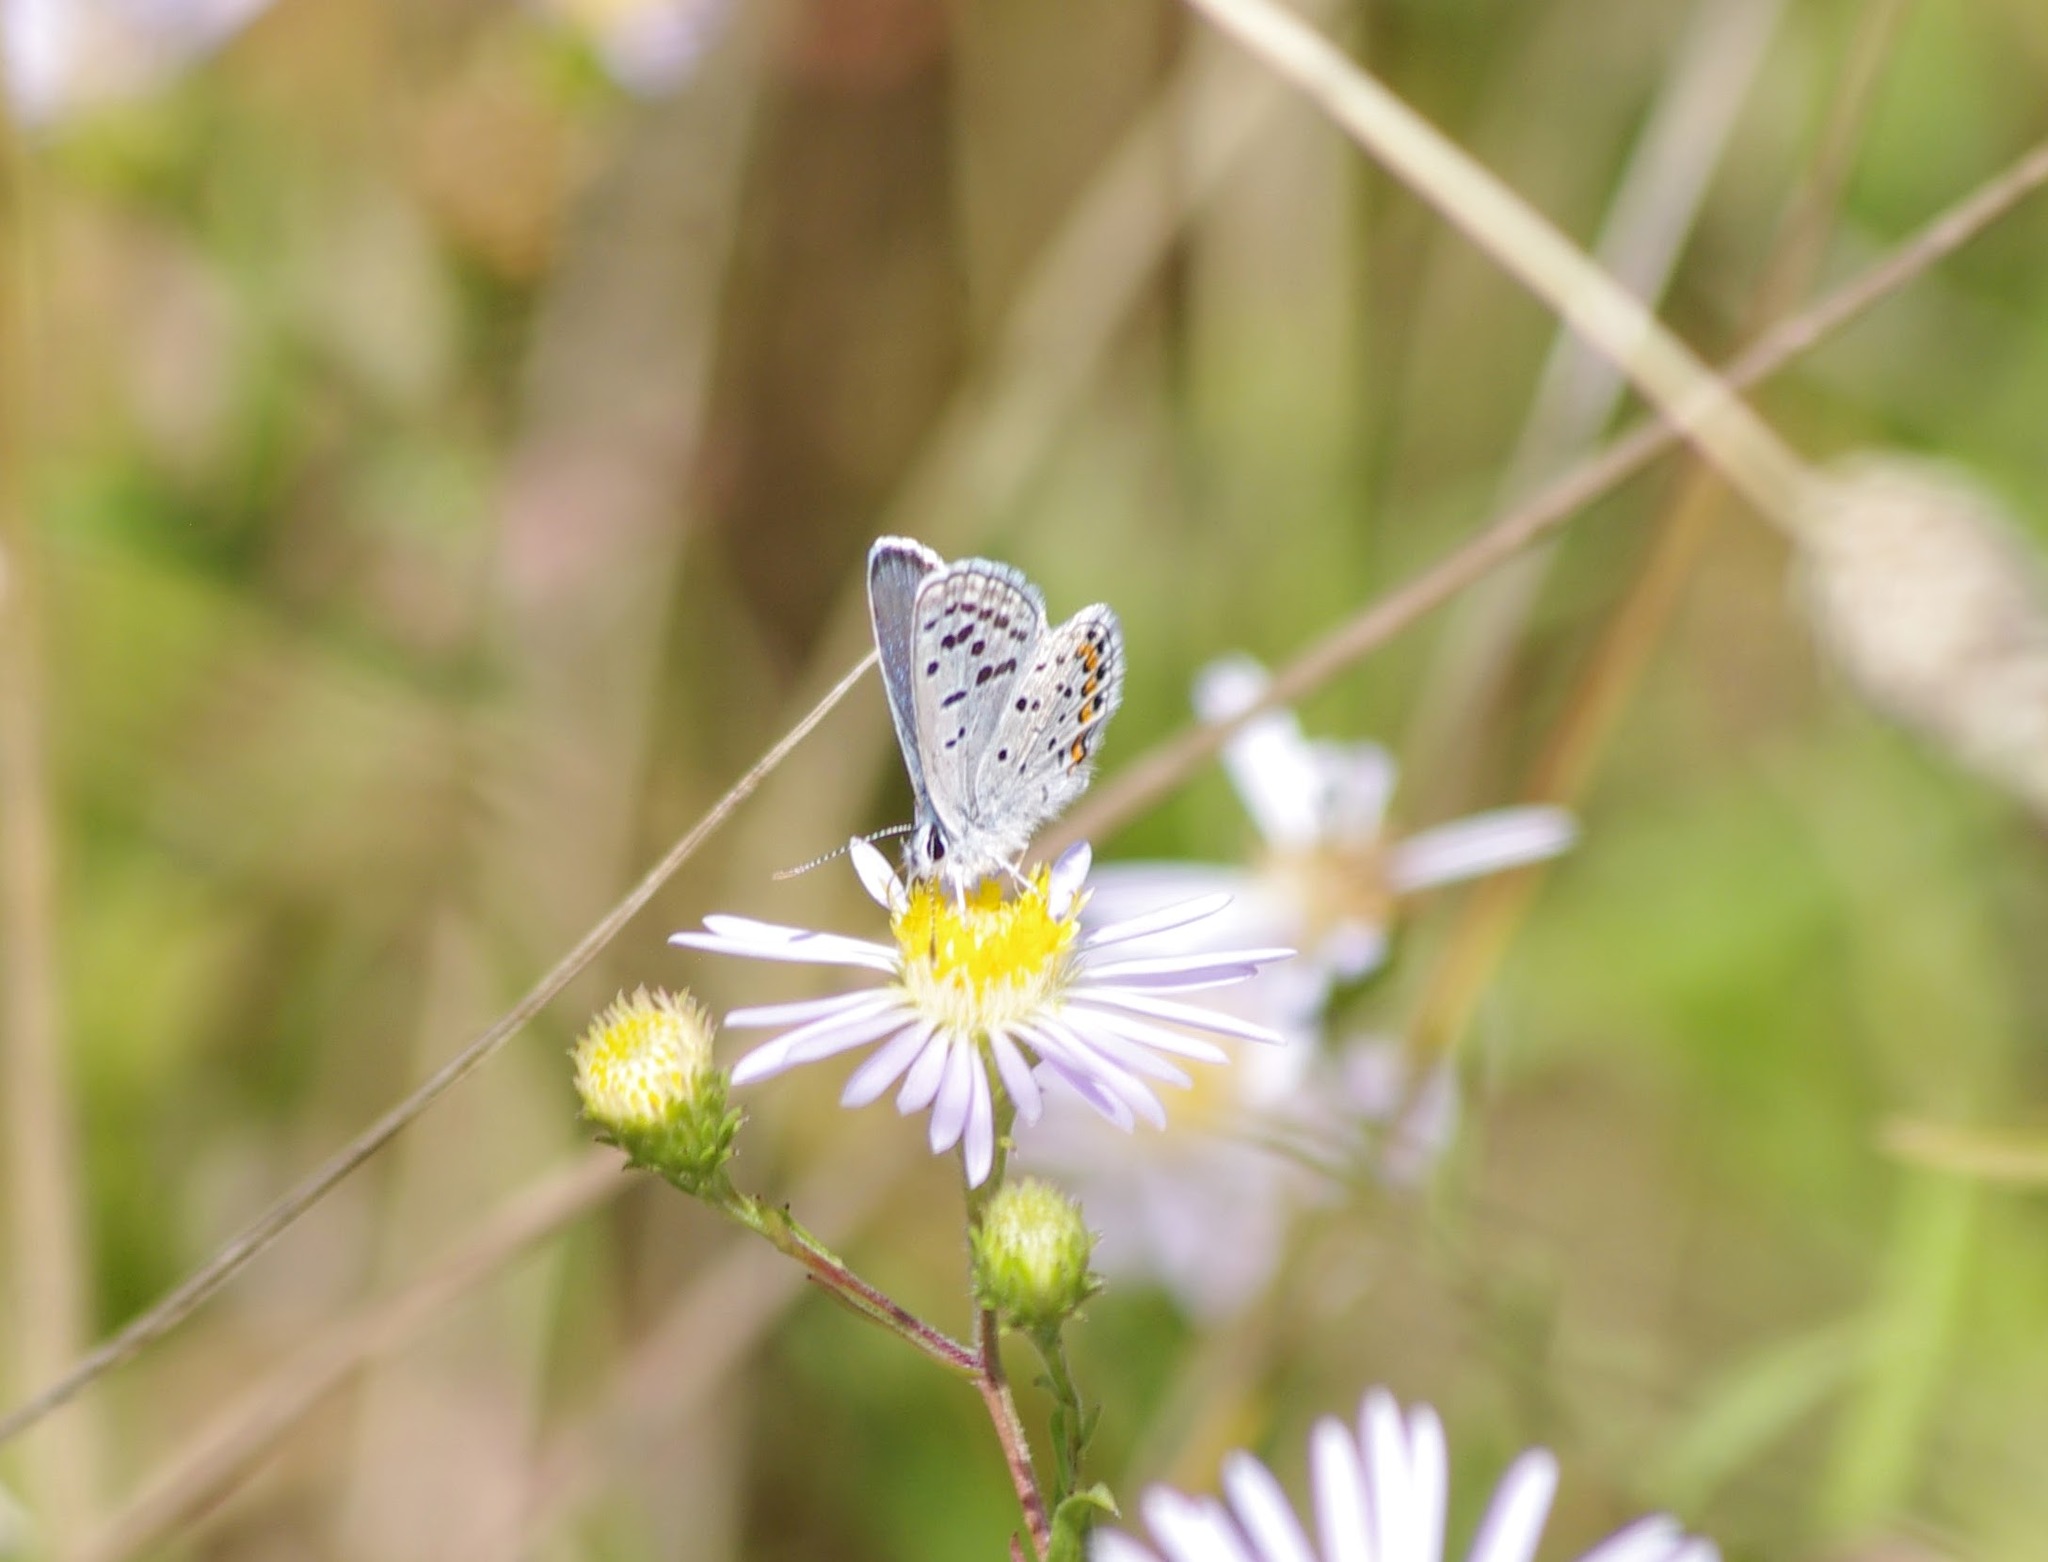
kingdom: Animalia
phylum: Arthropoda
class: Insecta
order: Lepidoptera
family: Lycaenidae
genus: Icaricia
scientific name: Icaricia lupini
